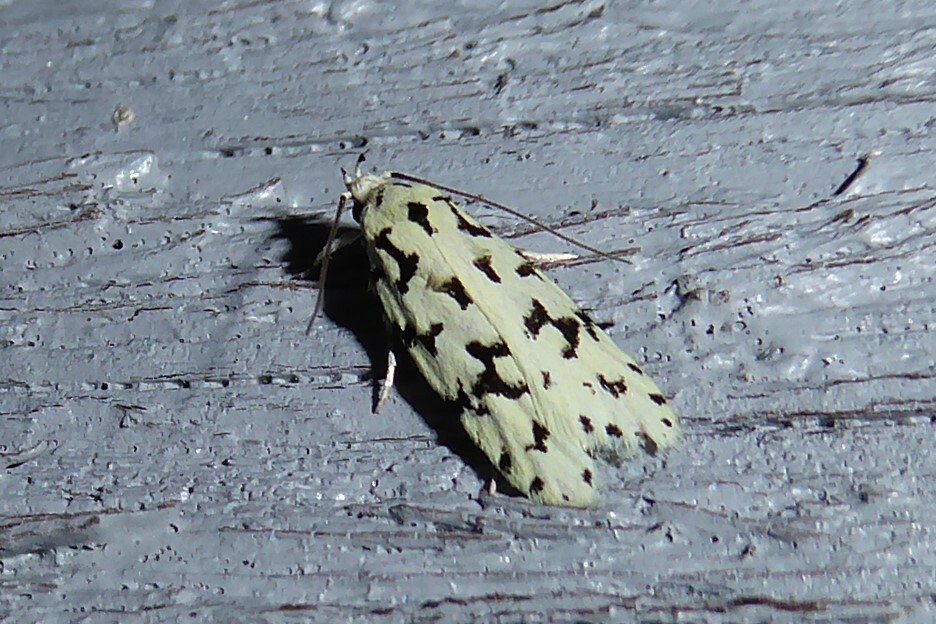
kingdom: Animalia
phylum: Arthropoda
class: Insecta
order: Lepidoptera
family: Oecophoridae
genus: Izatha
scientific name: Izatha huttoni
